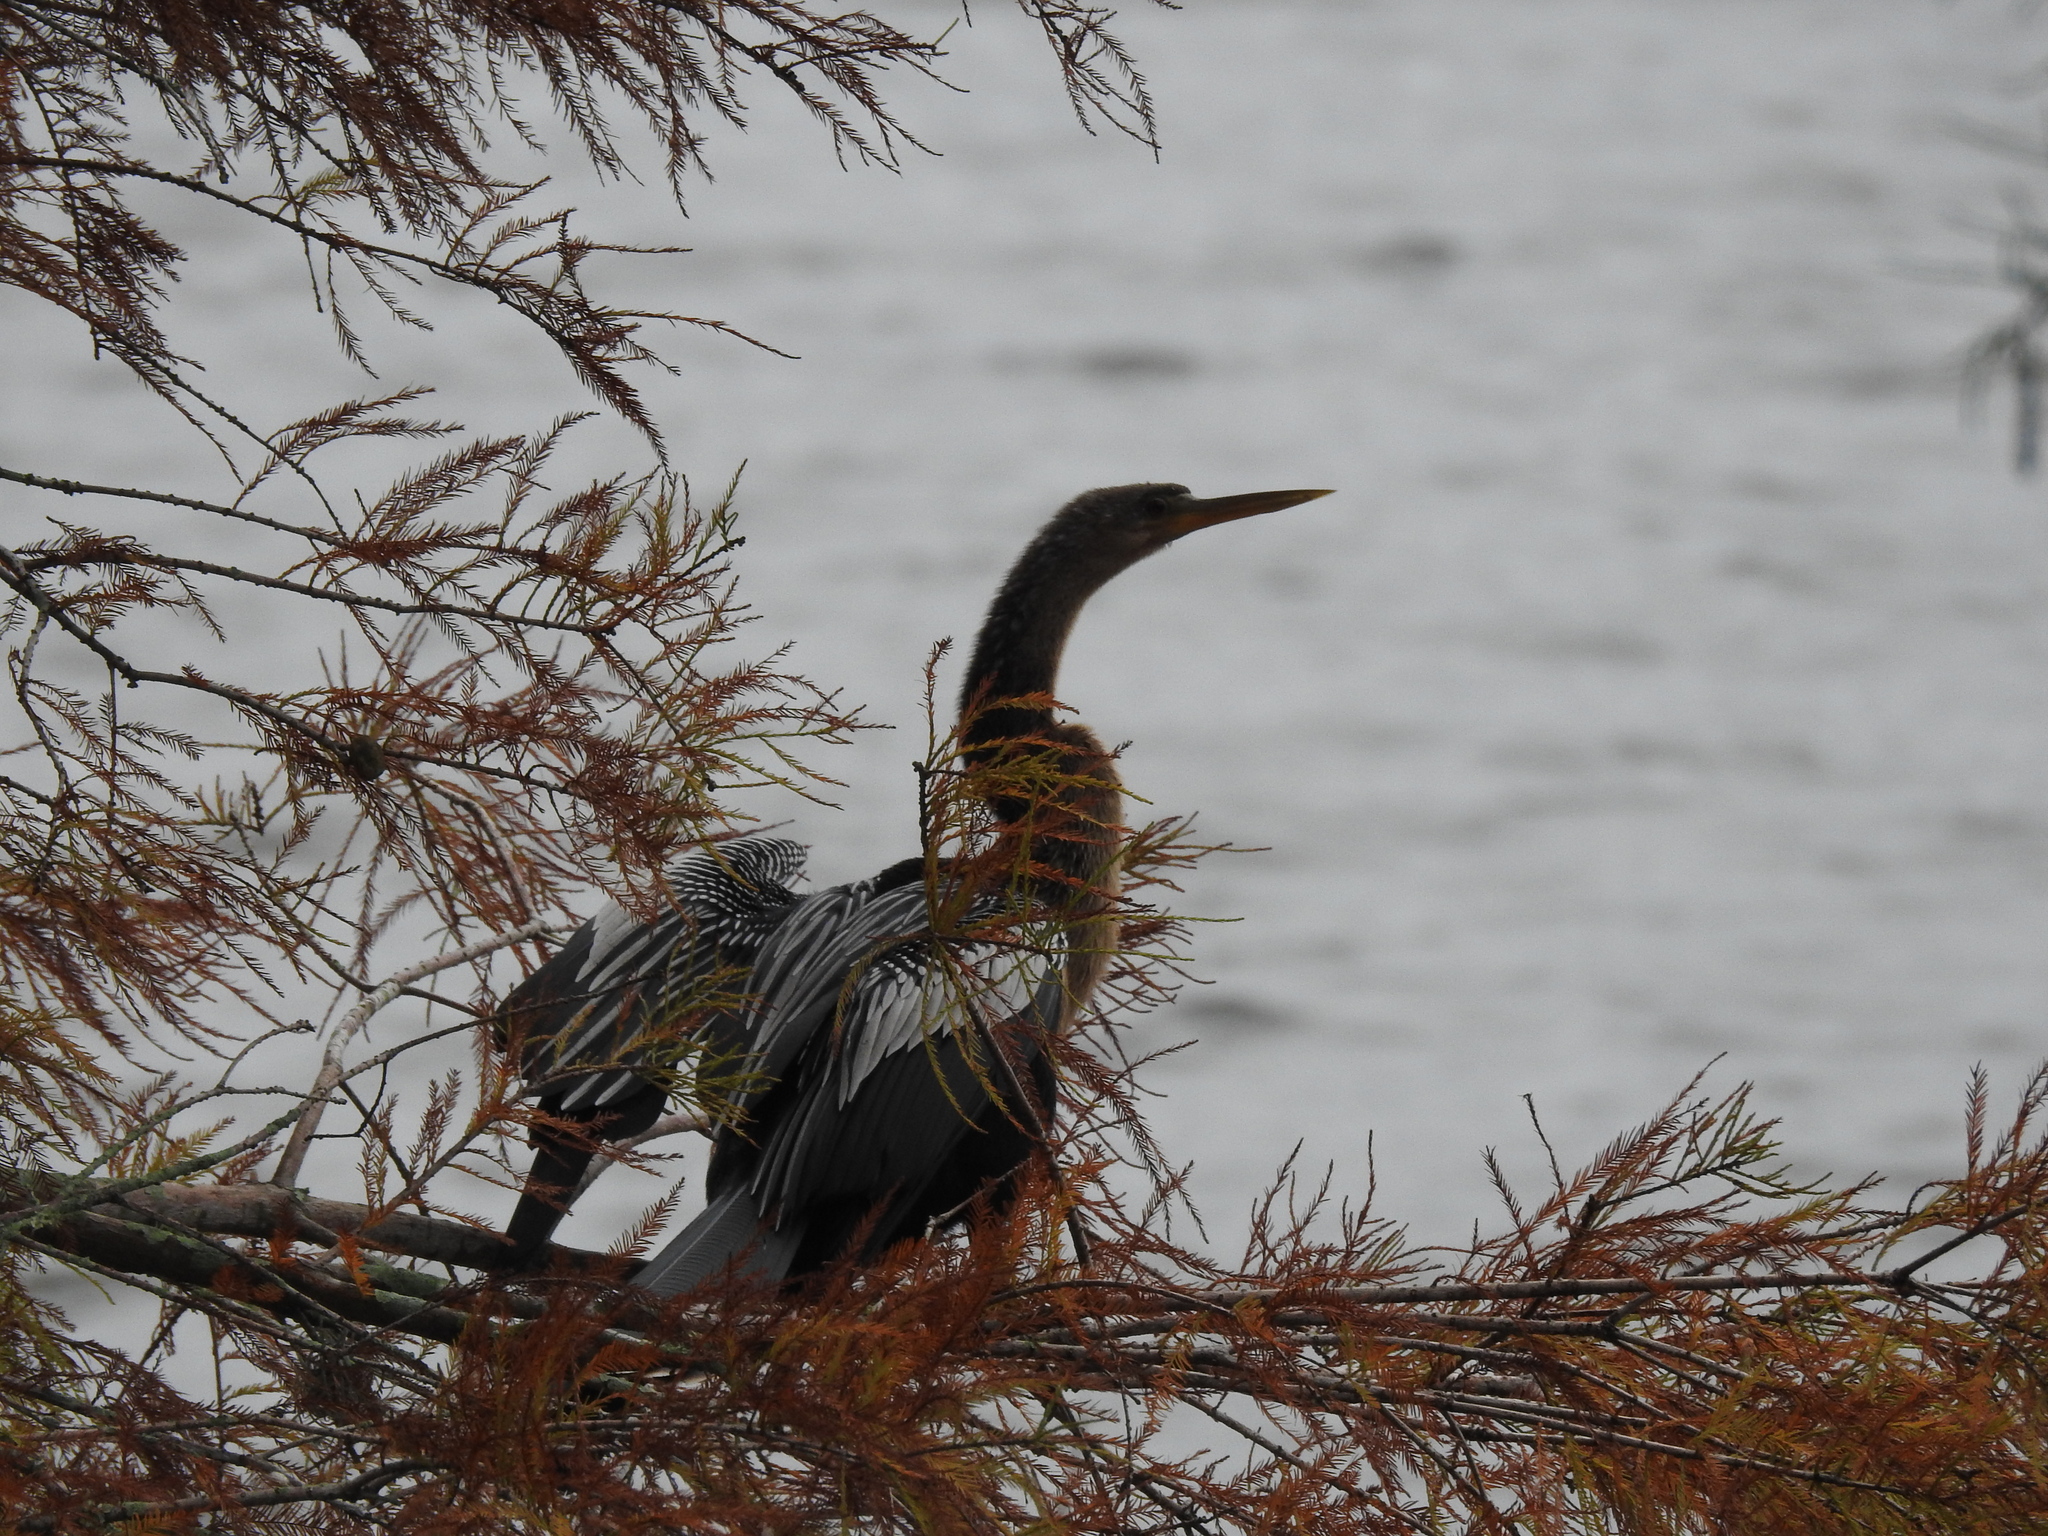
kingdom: Animalia
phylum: Chordata
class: Aves
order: Suliformes
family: Anhingidae
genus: Anhinga
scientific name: Anhinga anhinga
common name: Anhinga
